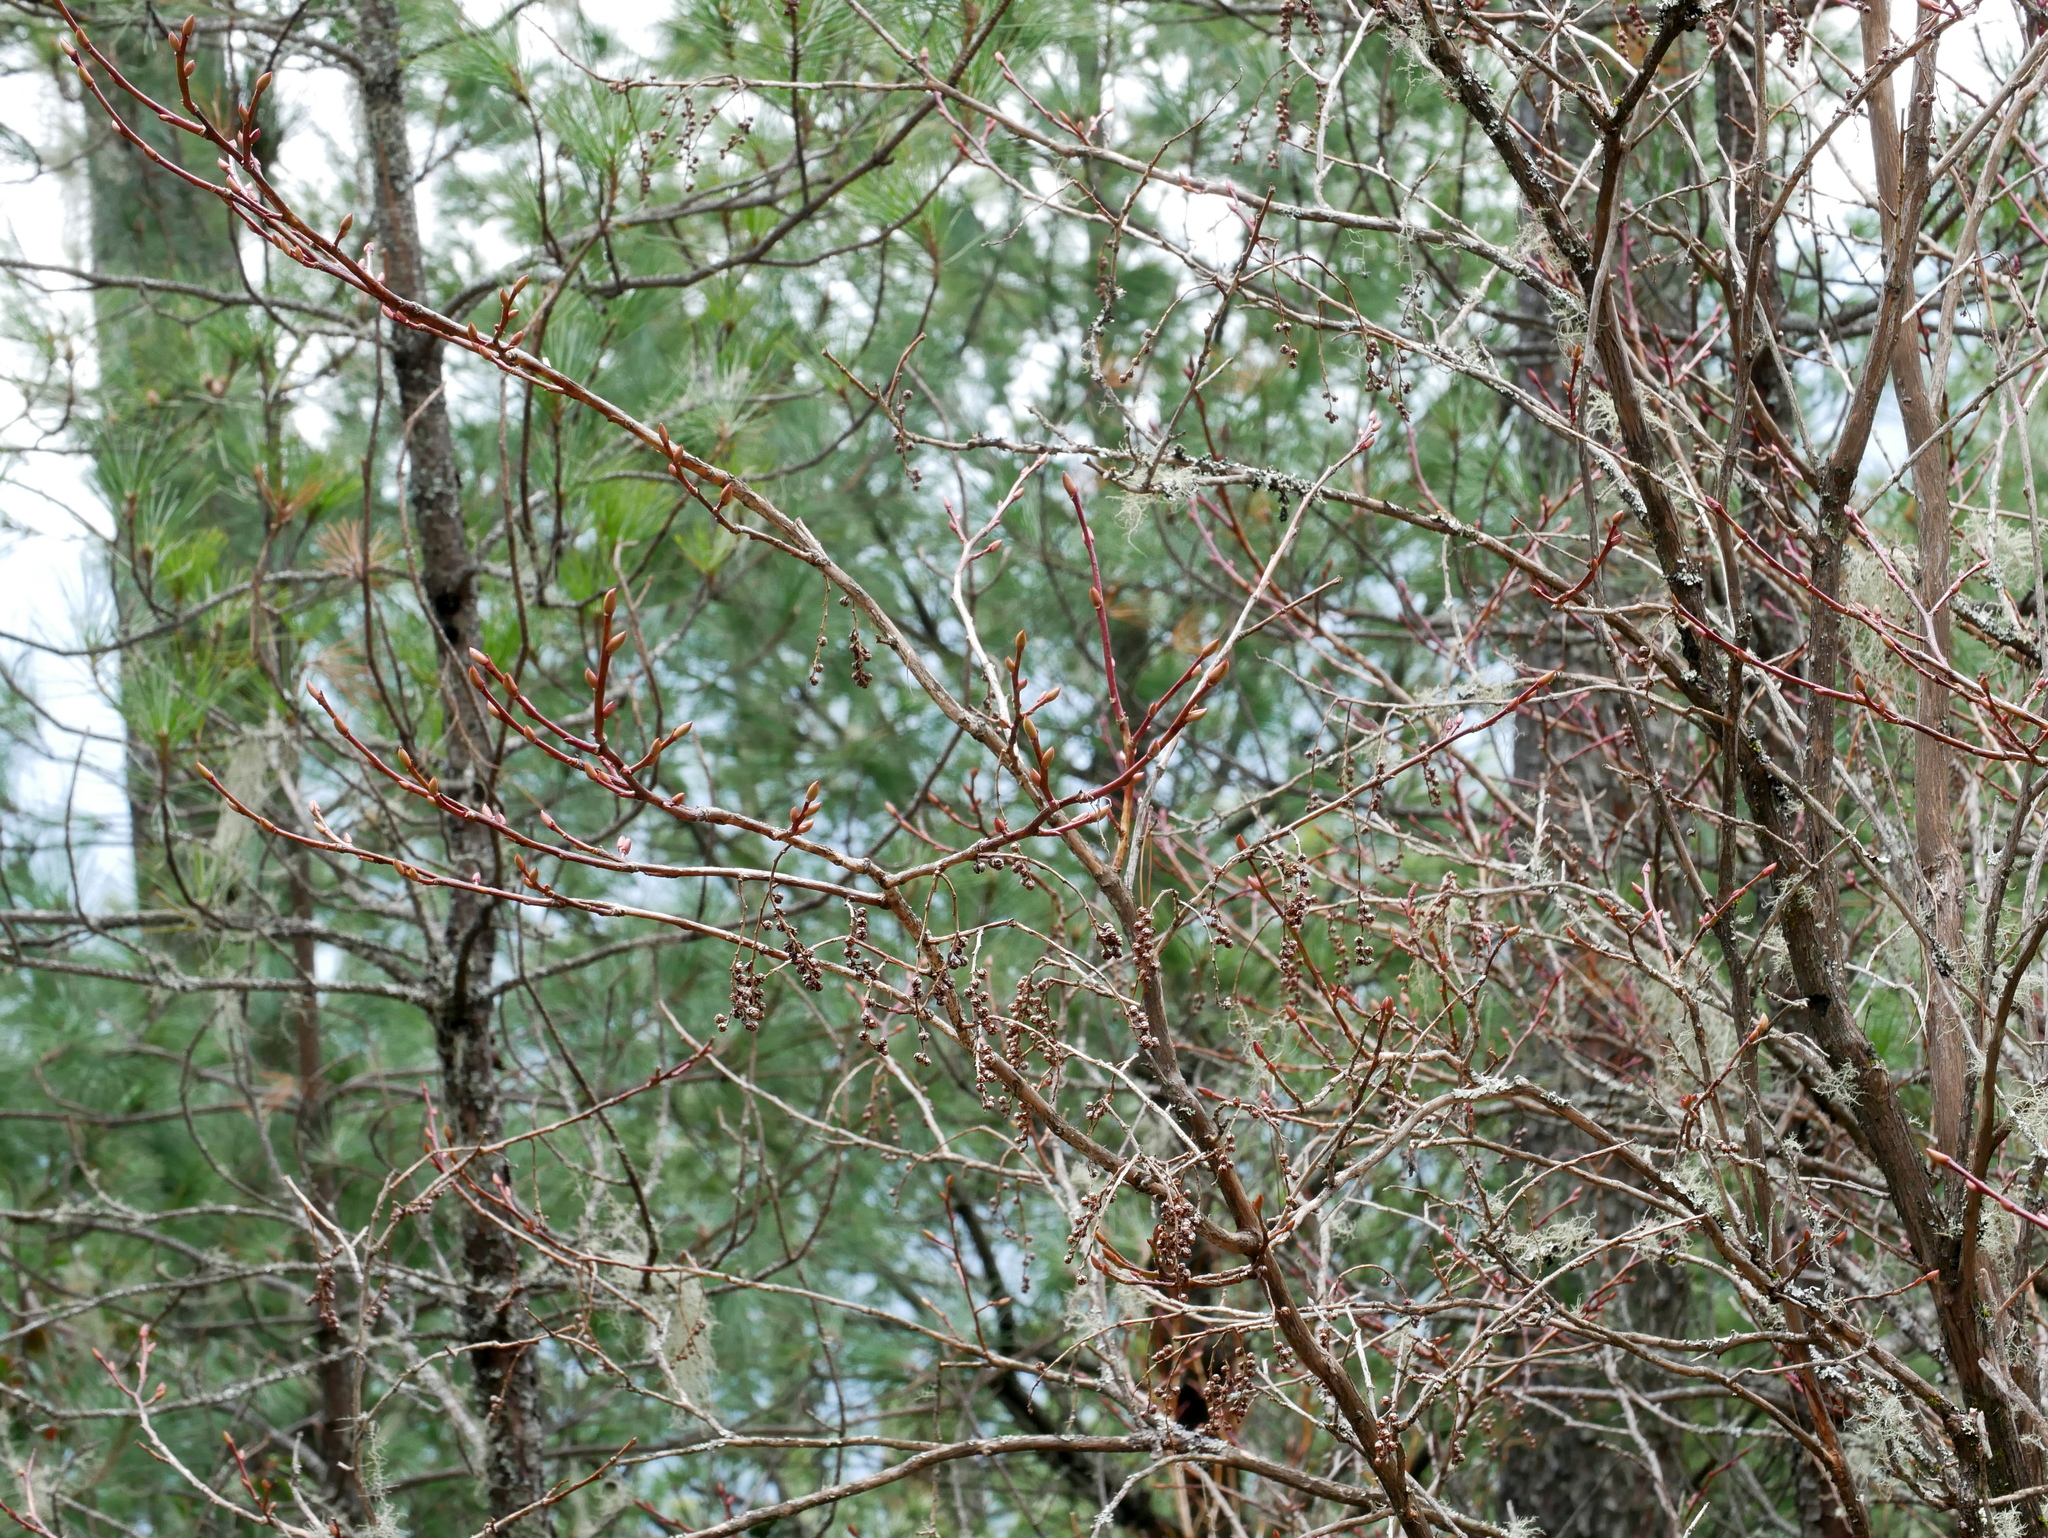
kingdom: Plantae
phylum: Tracheophyta
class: Magnoliopsida
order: Ericales
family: Ericaceae
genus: Lyonia
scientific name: Lyonia ovalifolia
